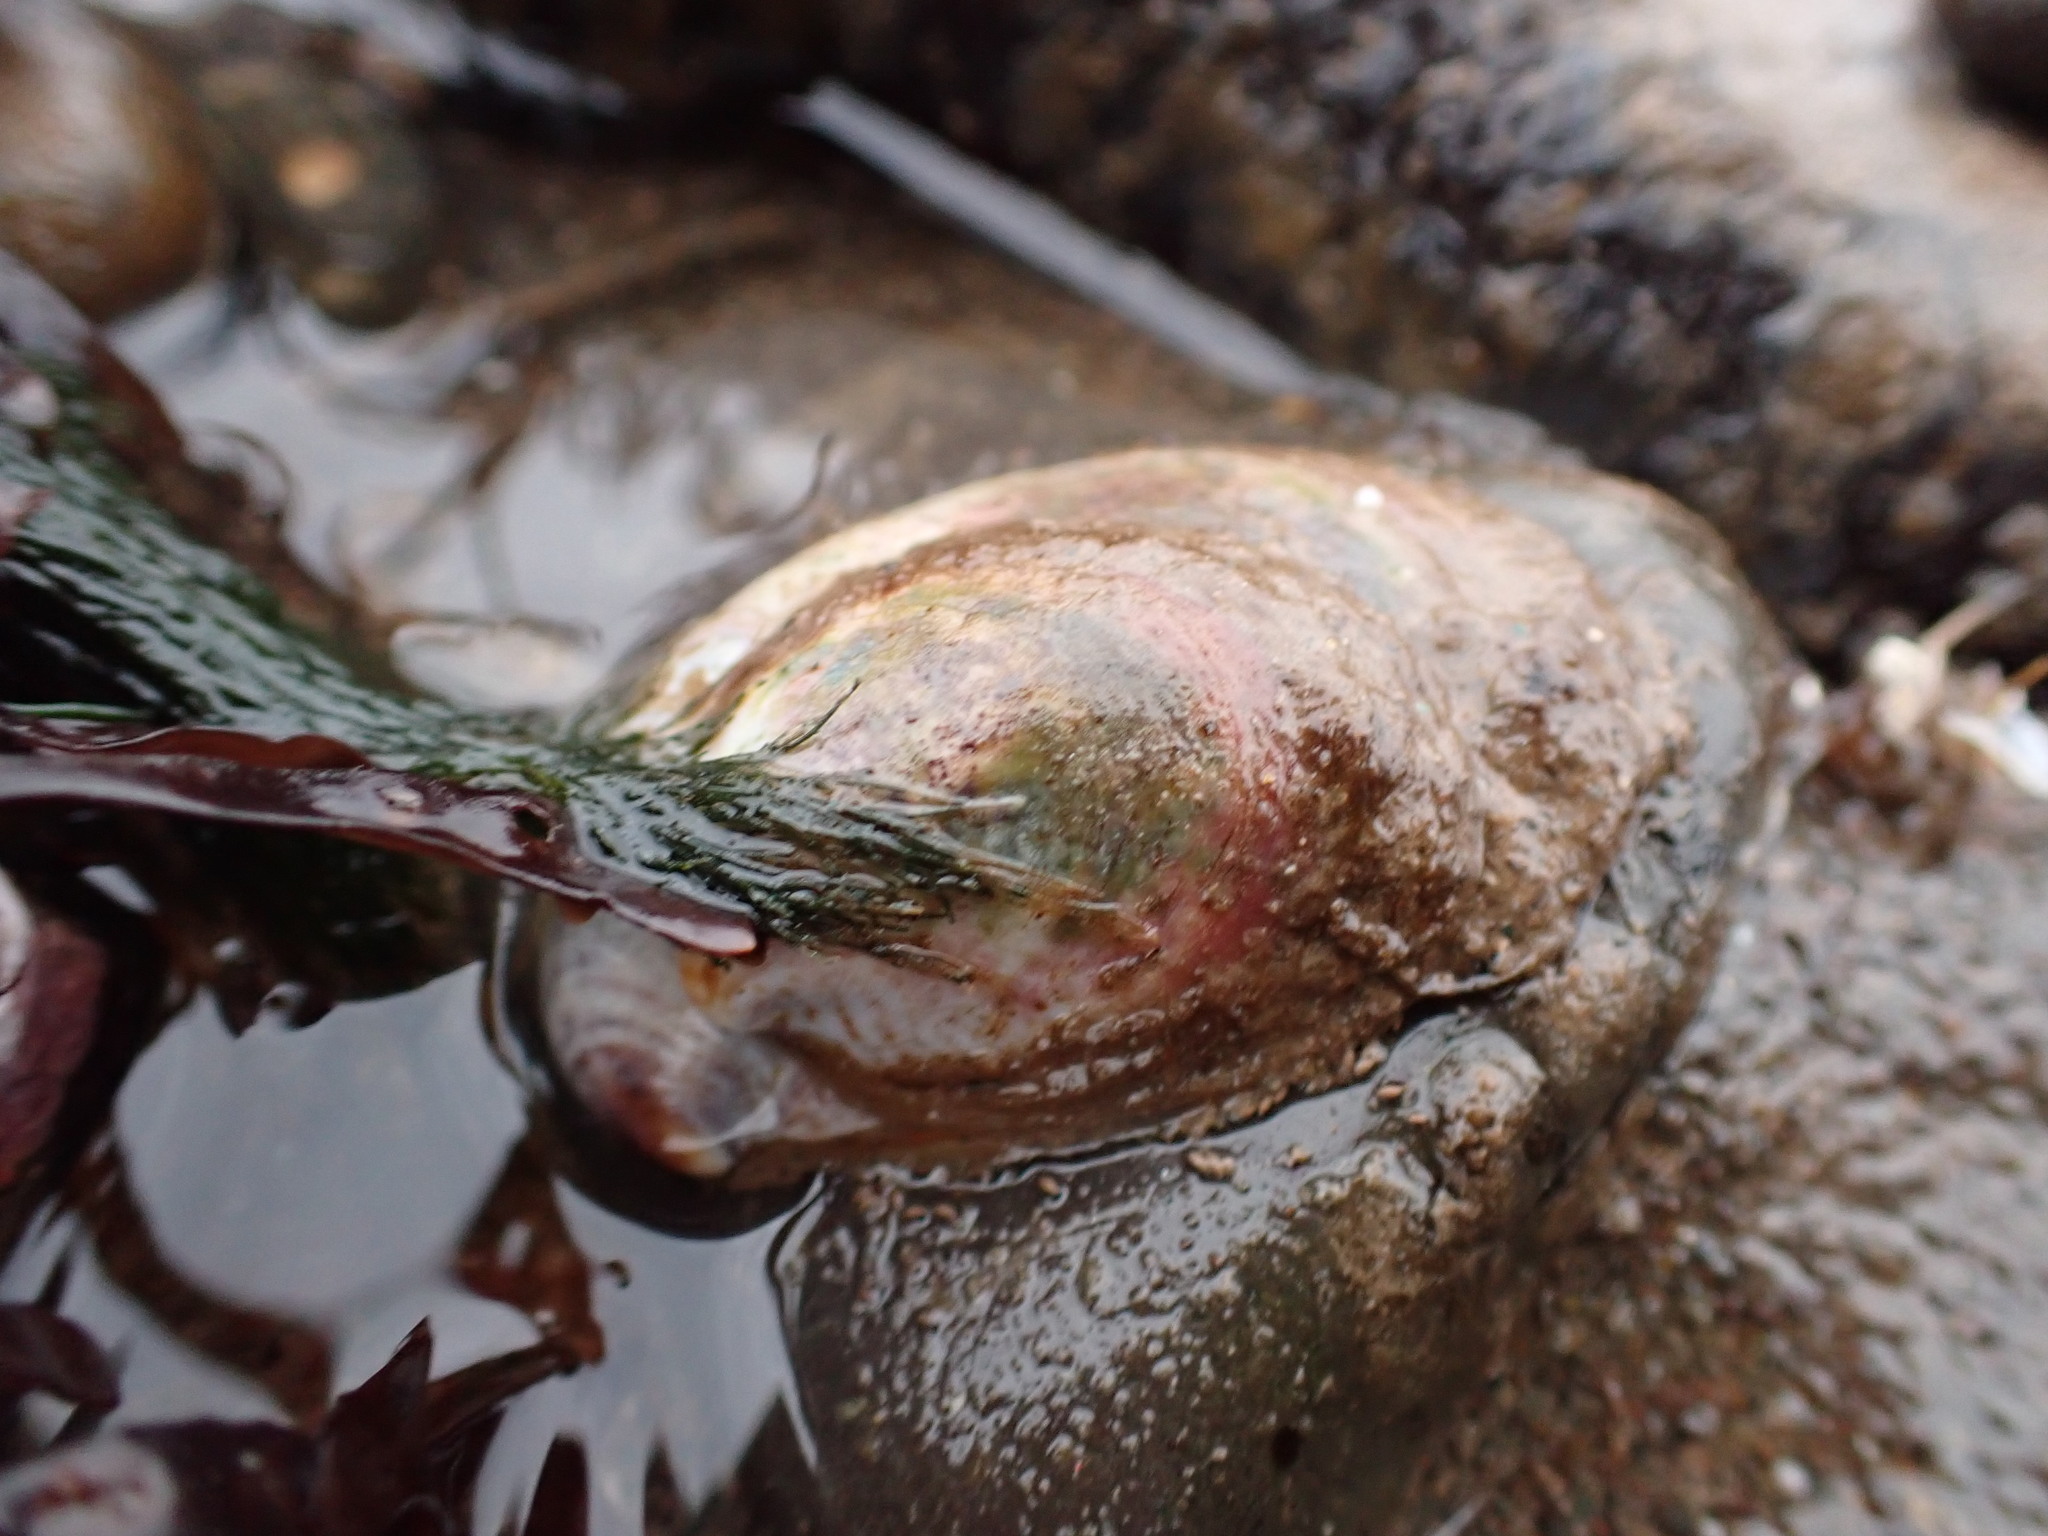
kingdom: Animalia
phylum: Mollusca
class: Gastropoda
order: Littorinimorpha
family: Calyptraeidae
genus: Crepidula
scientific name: Crepidula fornicata
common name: Slipper limpet
